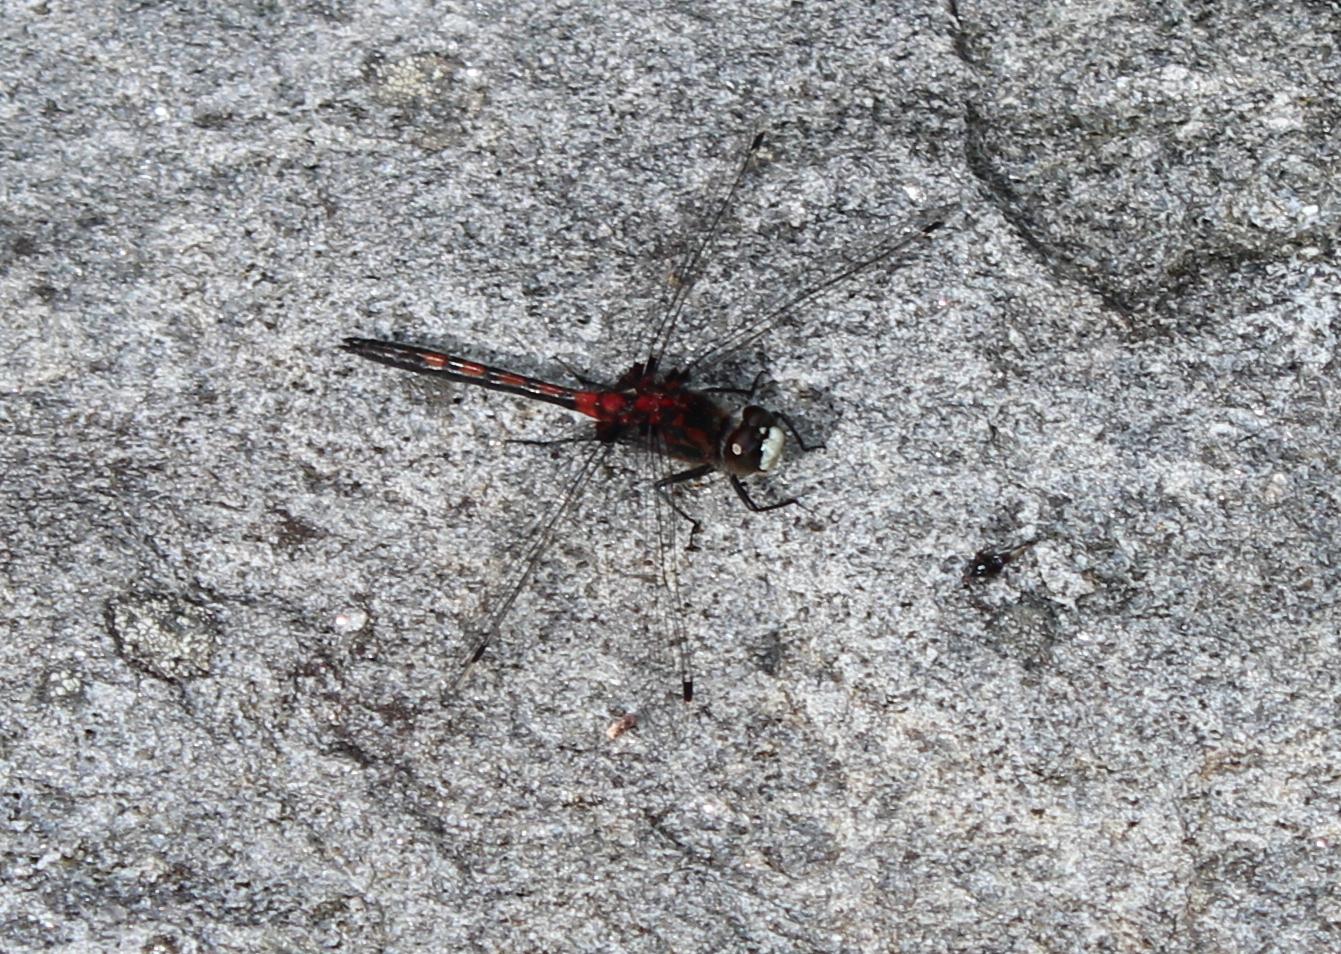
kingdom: Animalia
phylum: Arthropoda
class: Insecta
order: Odonata
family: Libellulidae
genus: Leucorrhinia
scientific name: Leucorrhinia hudsonica
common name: Hudsonian whiteface
